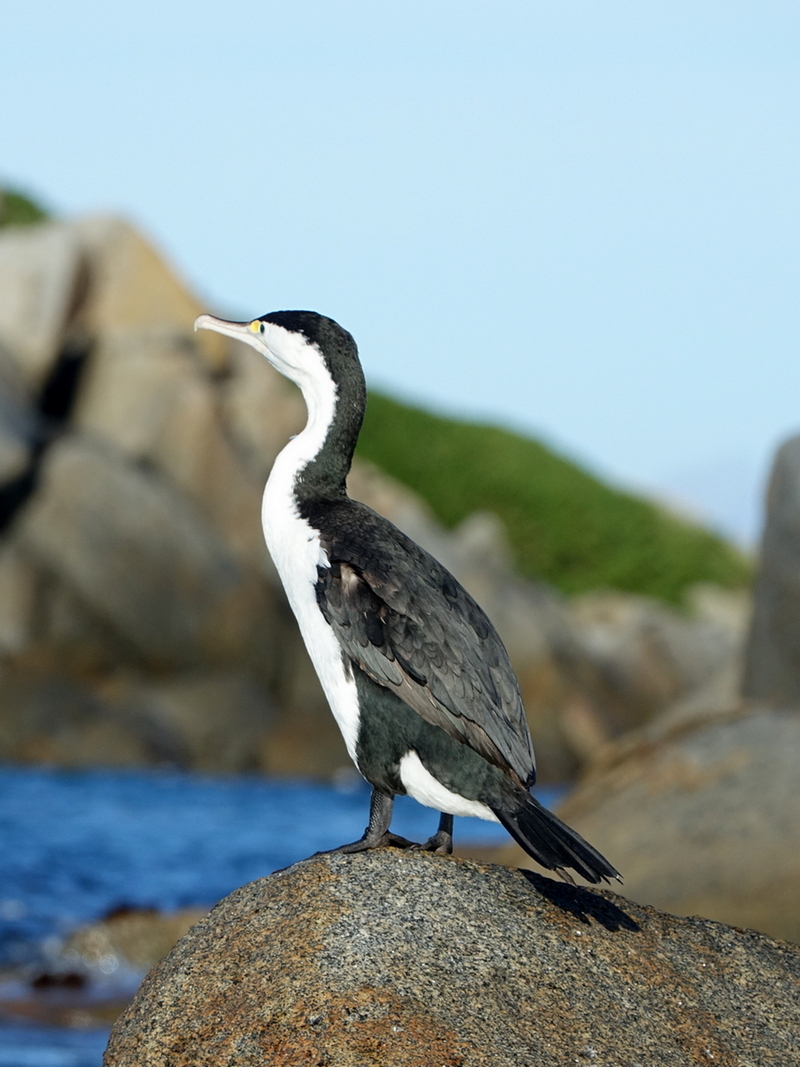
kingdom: Animalia
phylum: Chordata
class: Aves
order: Suliformes
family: Phalacrocoracidae
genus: Phalacrocorax
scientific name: Phalacrocorax varius
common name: Pied cormorant
